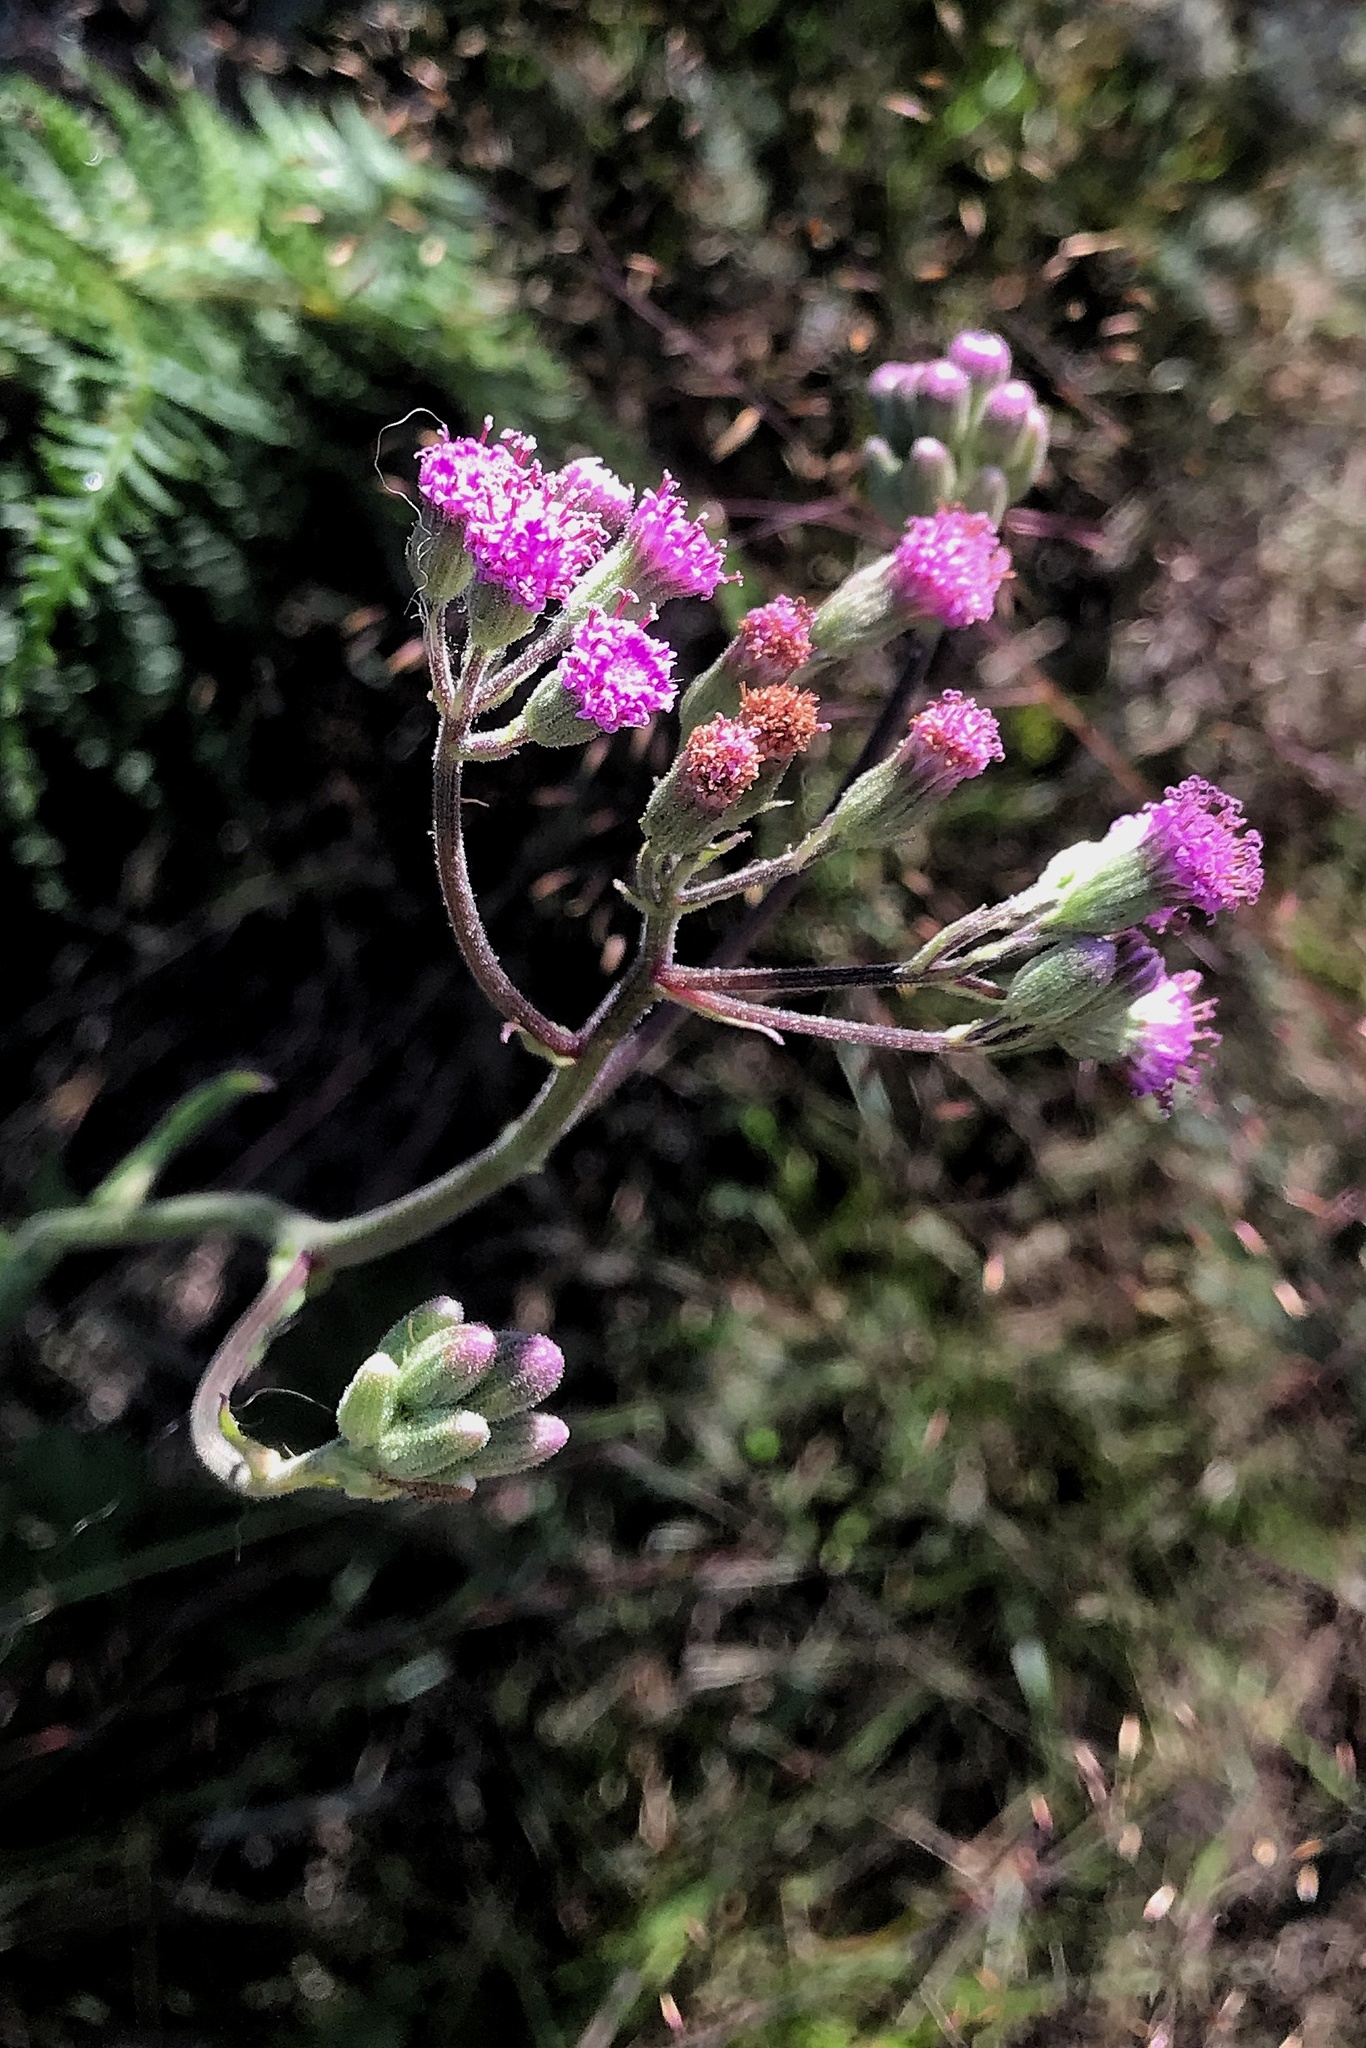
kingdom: Plantae
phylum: Tracheophyta
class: Magnoliopsida
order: Asterales
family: Asteraceae
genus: Senecio
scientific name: Senecio purpureus
